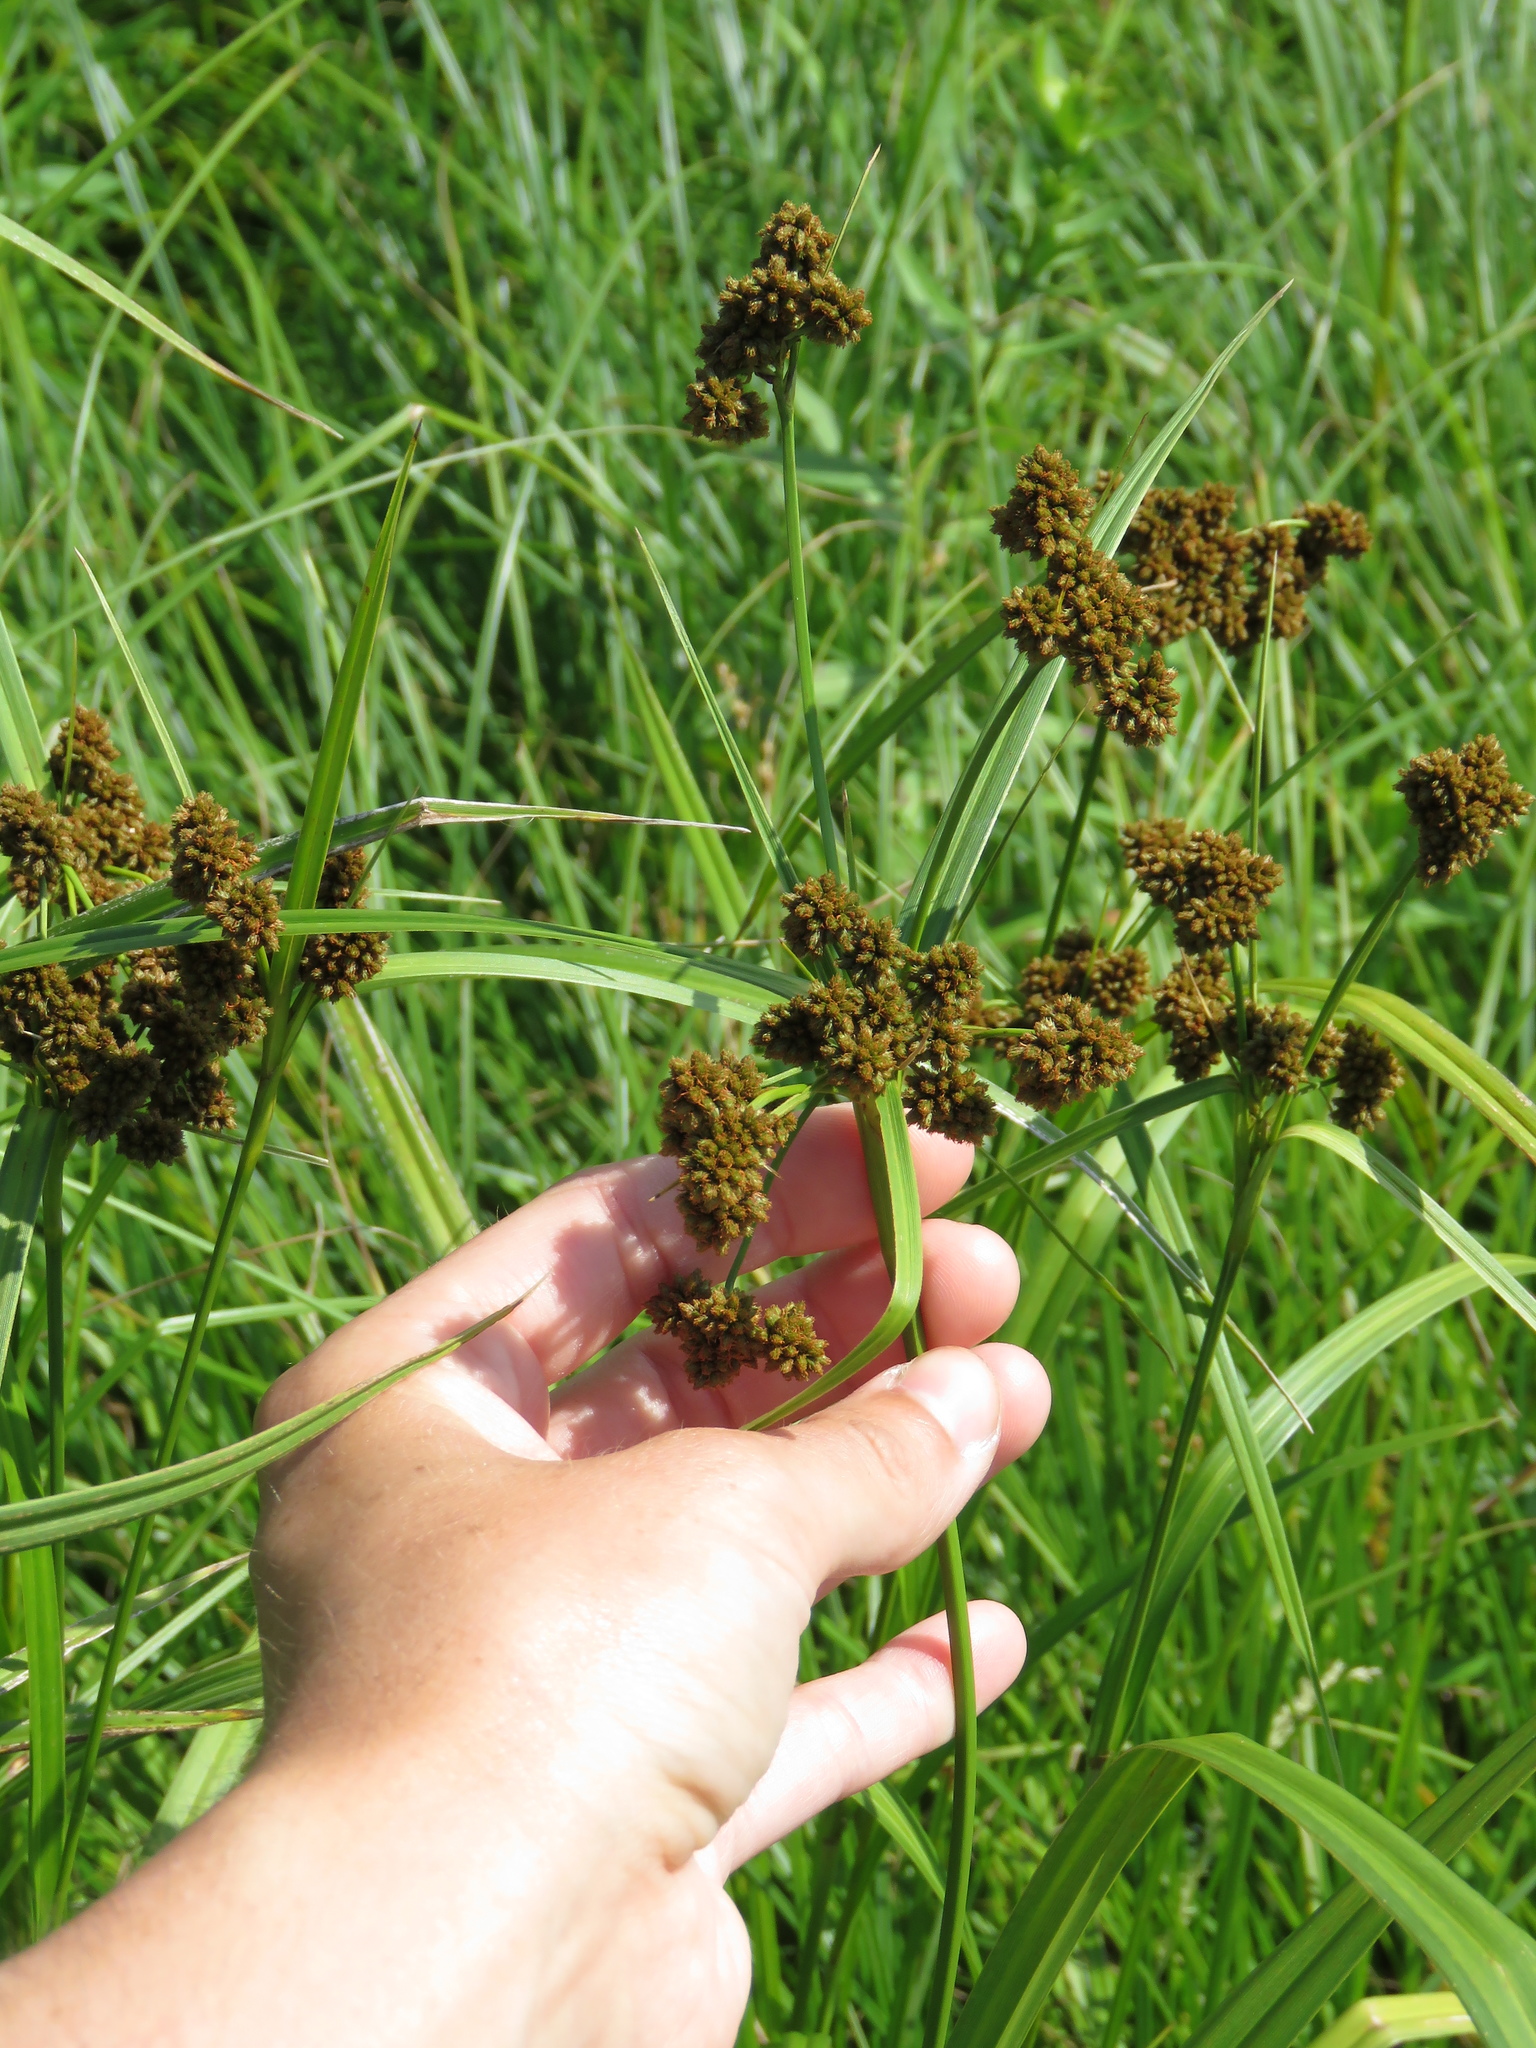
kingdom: Plantae
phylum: Tracheophyta
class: Liliopsida
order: Poales
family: Cyperaceae
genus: Scirpus
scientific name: Scirpus atrovirens
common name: Black bulrush
